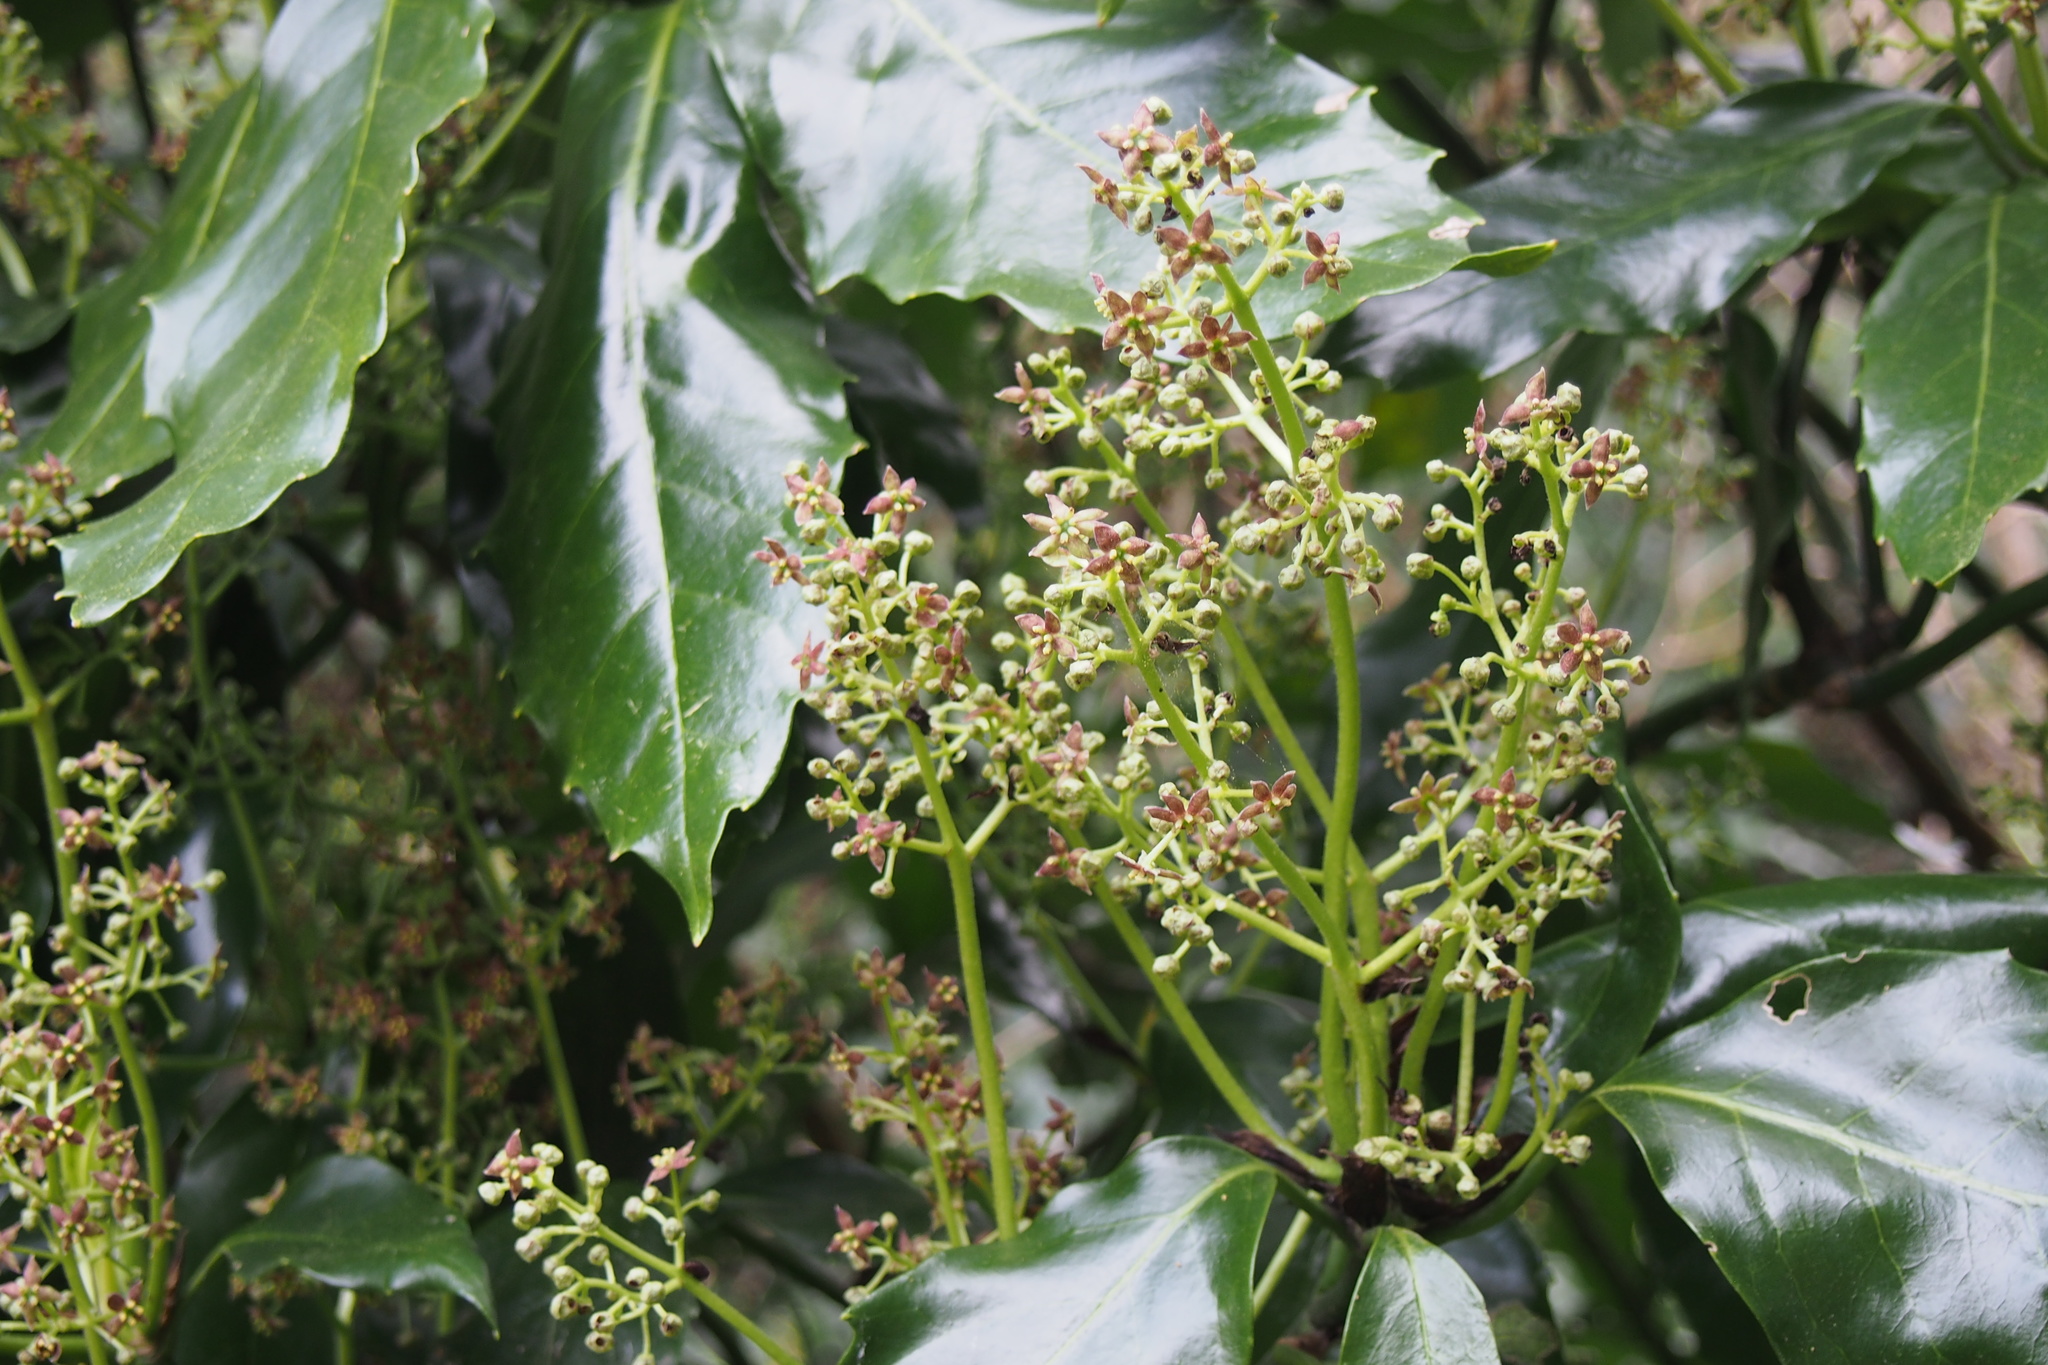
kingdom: Plantae
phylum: Tracheophyta
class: Magnoliopsida
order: Garryales
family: Garryaceae
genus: Aucuba
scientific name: Aucuba japonica
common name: Spotted-laurel
